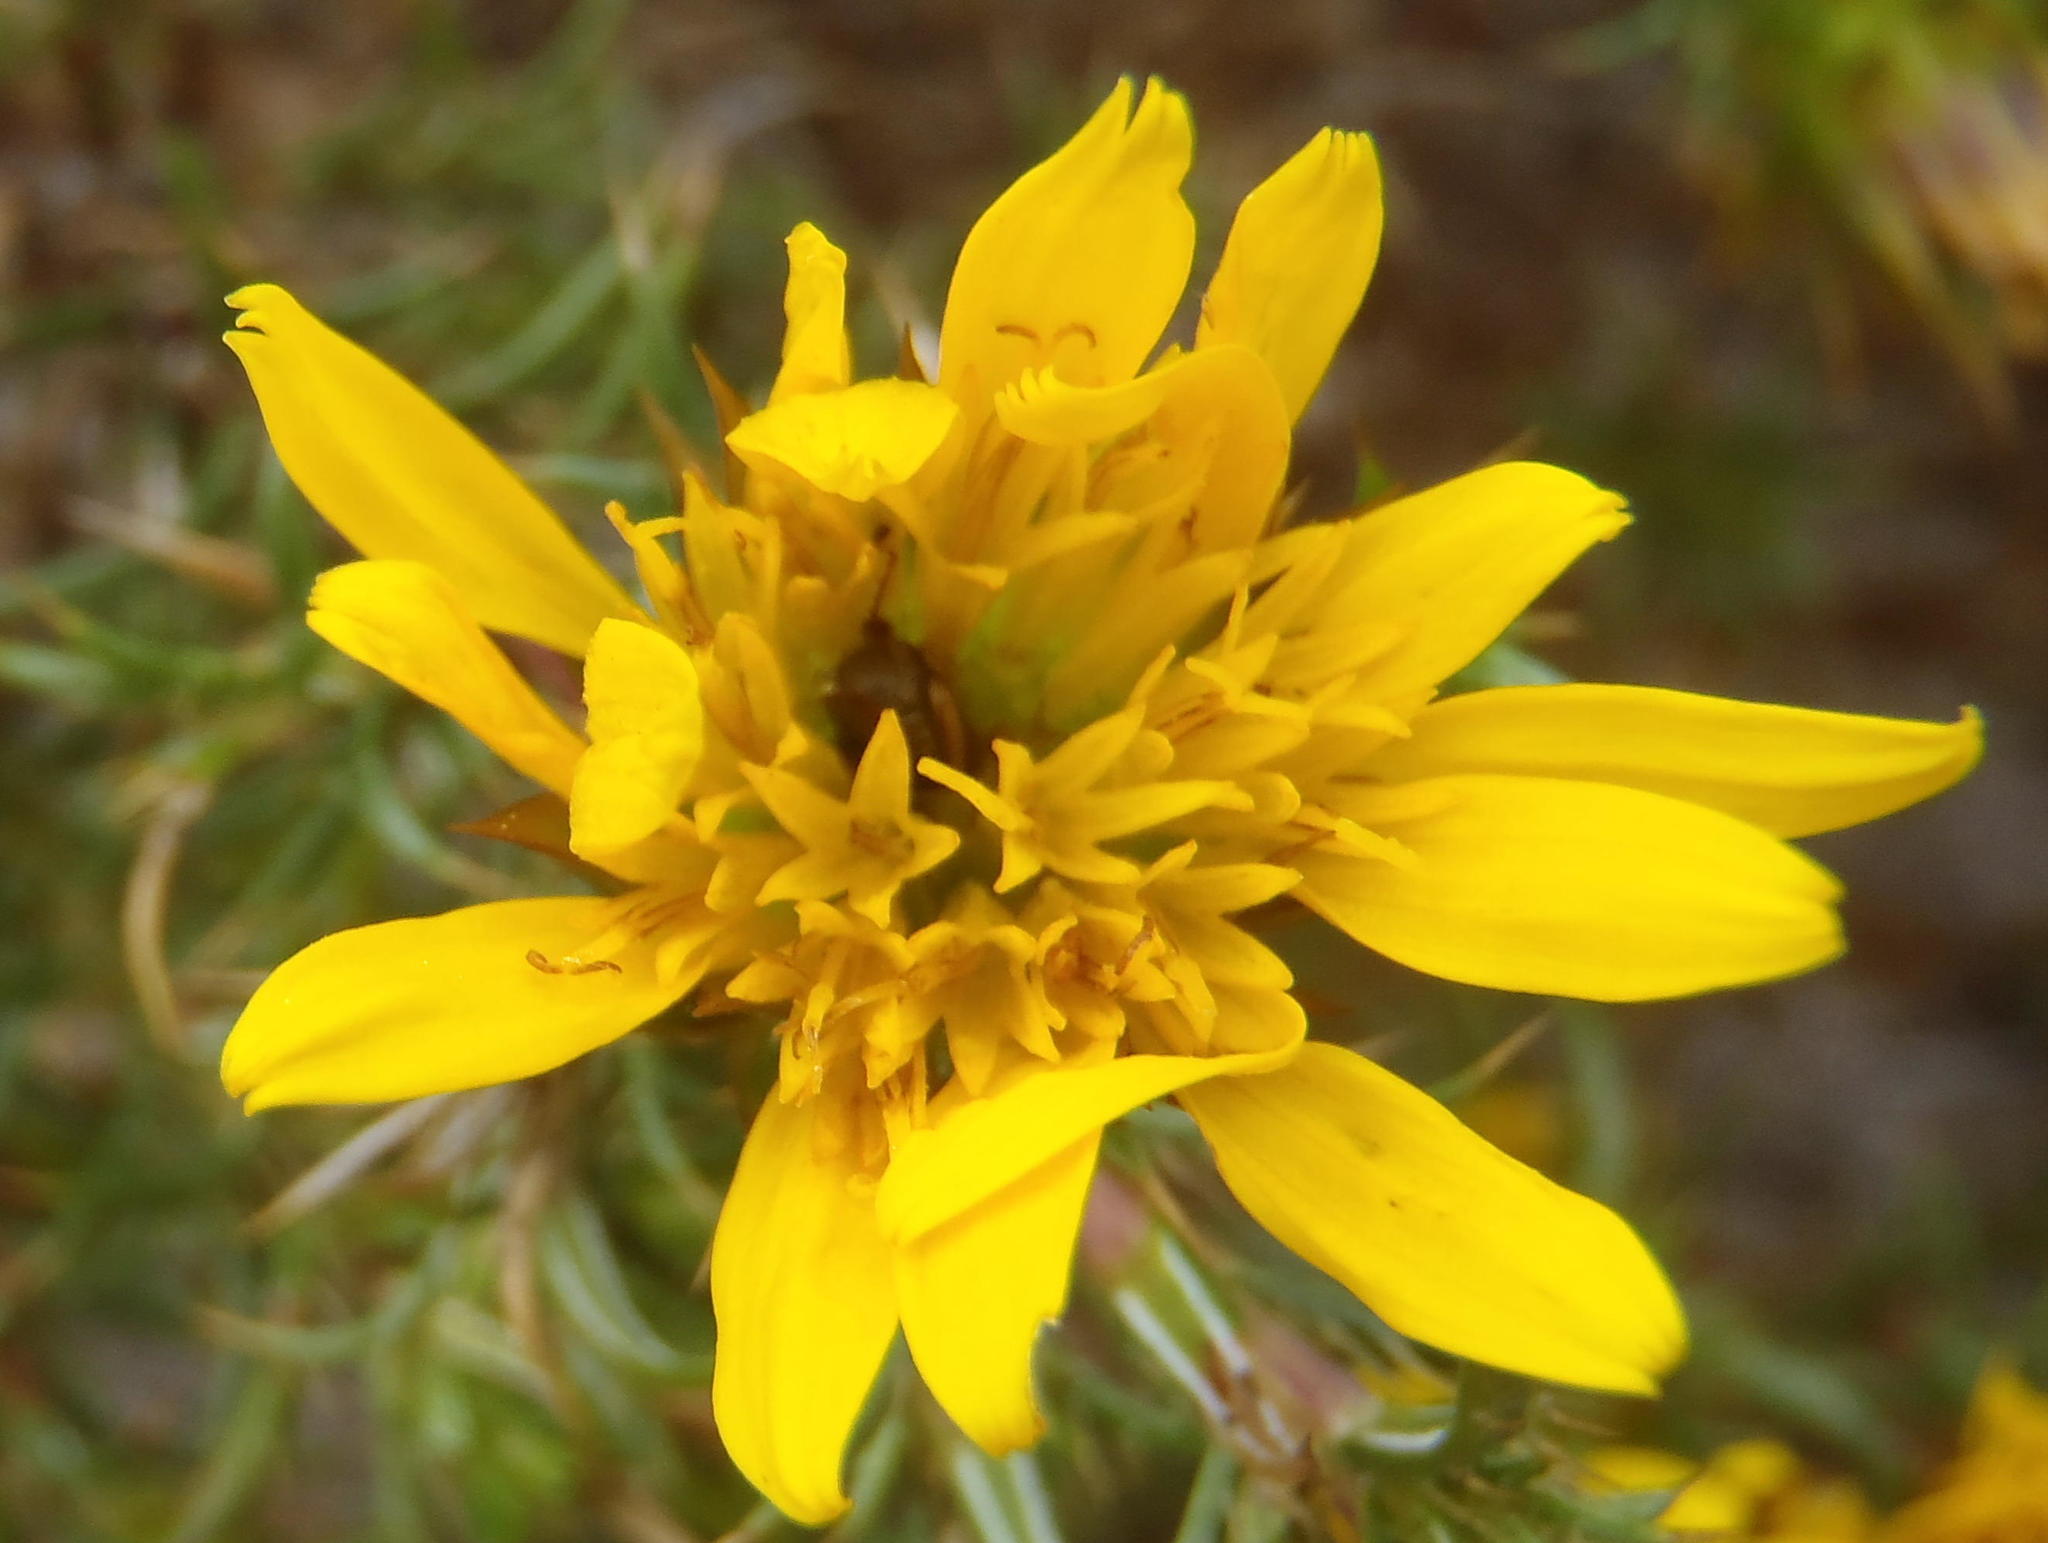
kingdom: Plantae
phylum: Tracheophyta
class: Magnoliopsida
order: Asterales
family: Asteraceae
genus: Cullumia
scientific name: Cullumia bisulca
